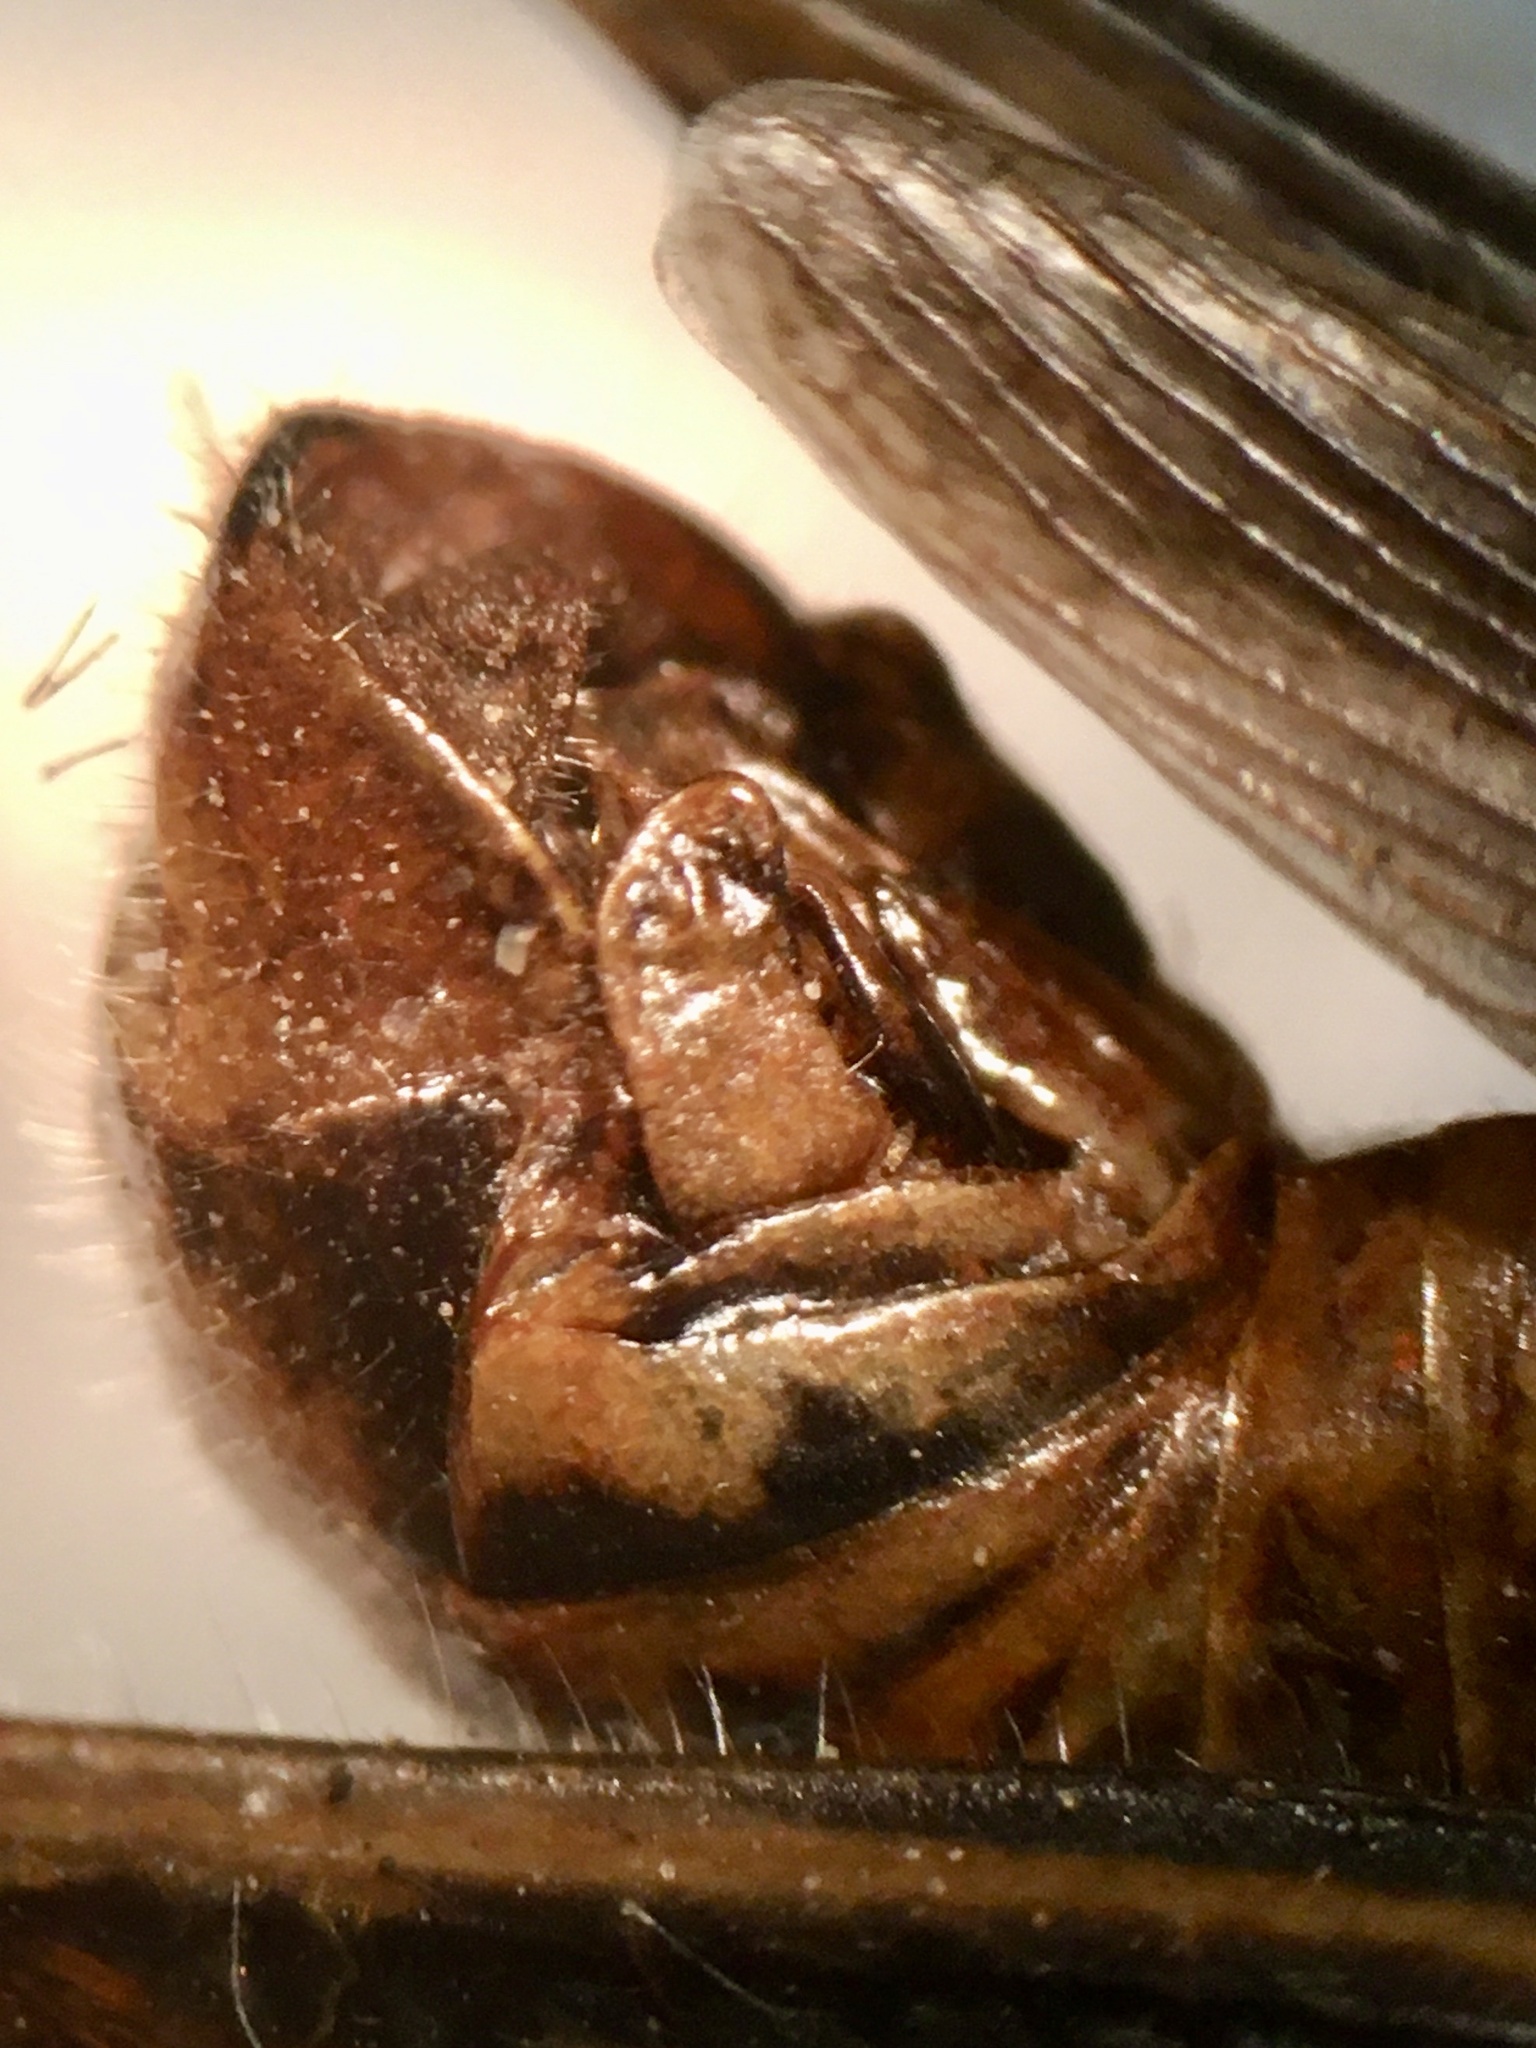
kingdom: Animalia
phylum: Arthropoda
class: Insecta
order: Orthoptera
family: Acrididae
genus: Melanoplus
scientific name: Melanoplus borealis
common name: Northern grasshopper
